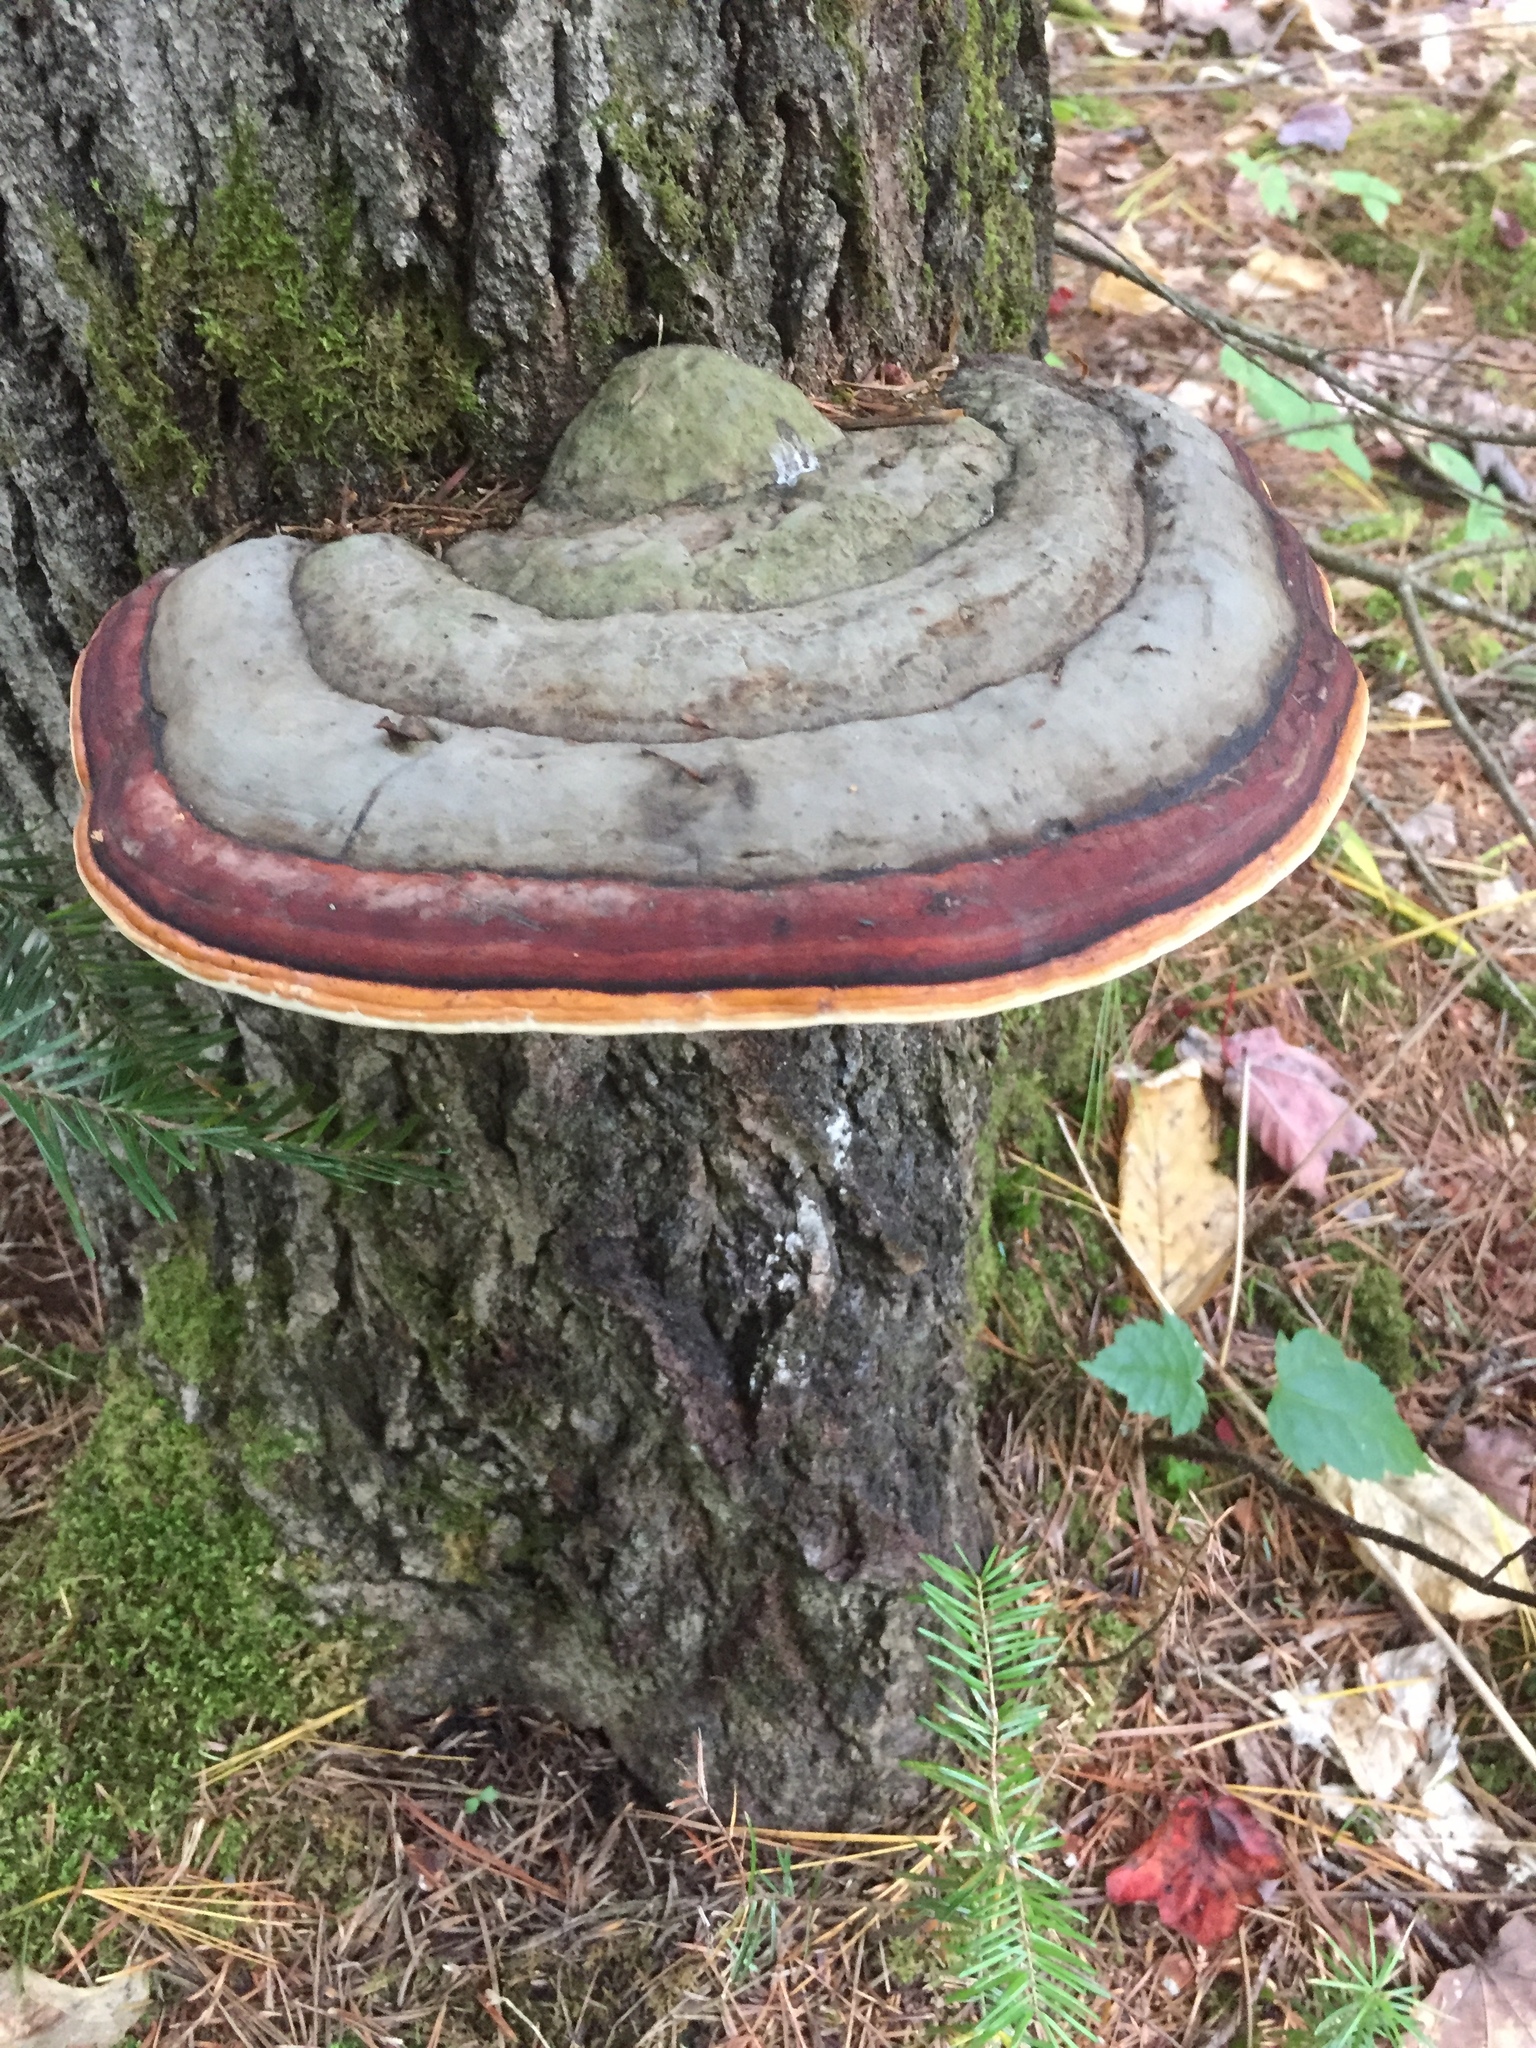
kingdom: Fungi
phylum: Basidiomycota
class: Agaricomycetes
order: Polyporales
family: Fomitopsidaceae
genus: Fomitopsis
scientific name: Fomitopsis mounceae
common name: Northern red belt
